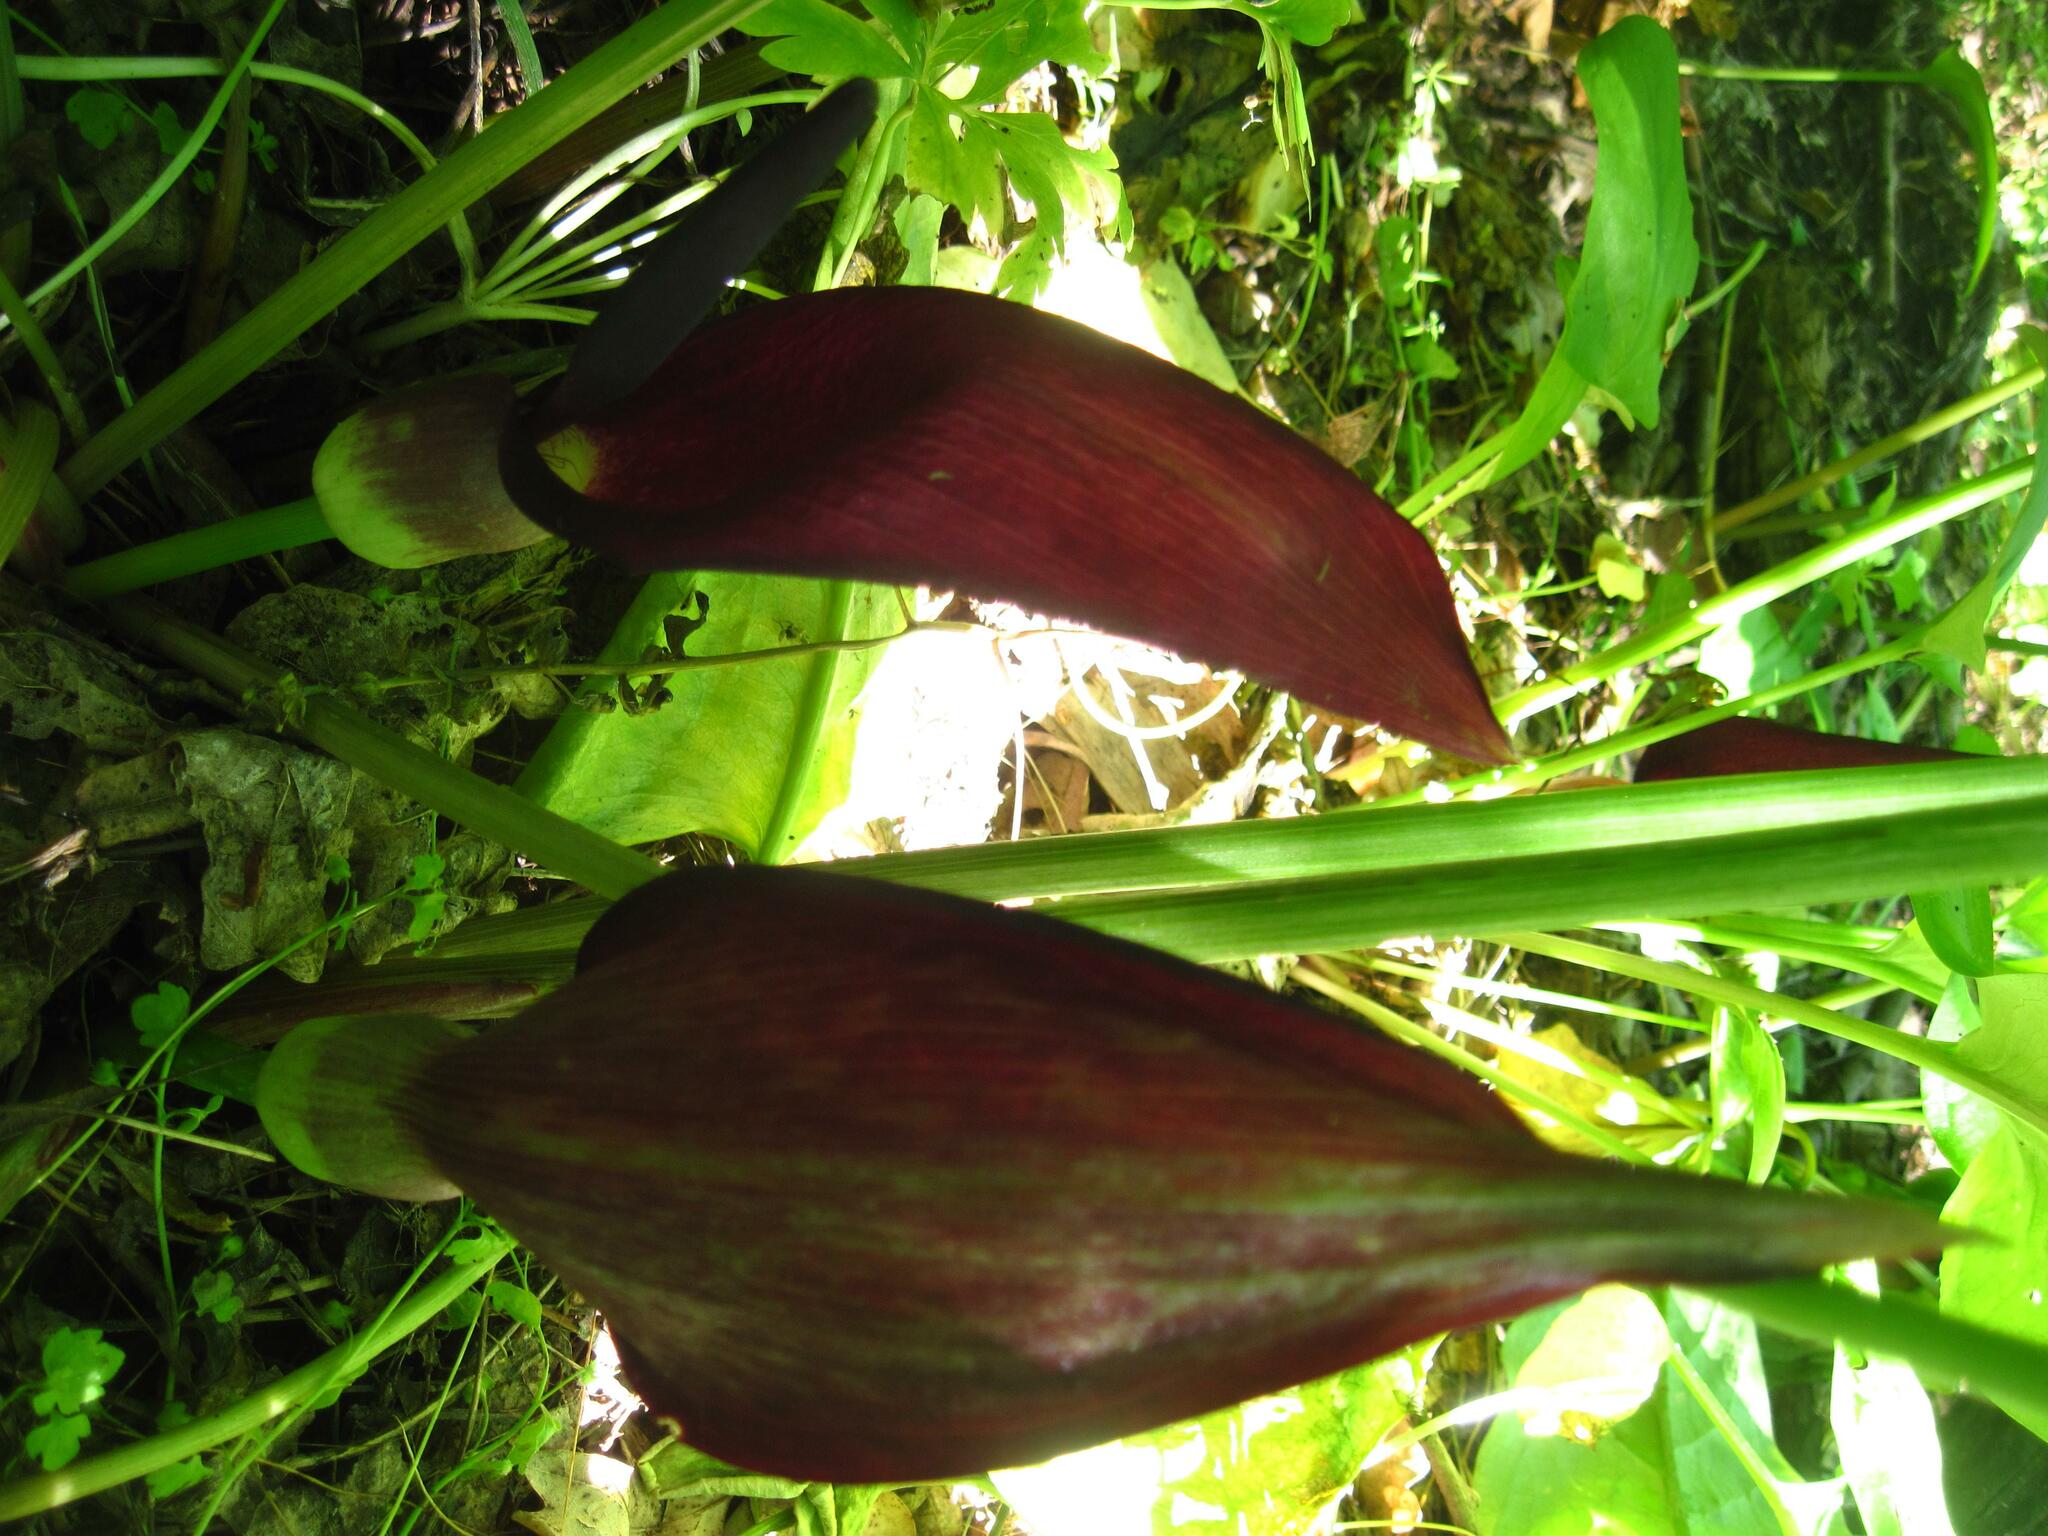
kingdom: Plantae
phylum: Tracheophyta
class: Liliopsida
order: Alismatales
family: Araceae
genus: Arum
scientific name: Arum orientale
